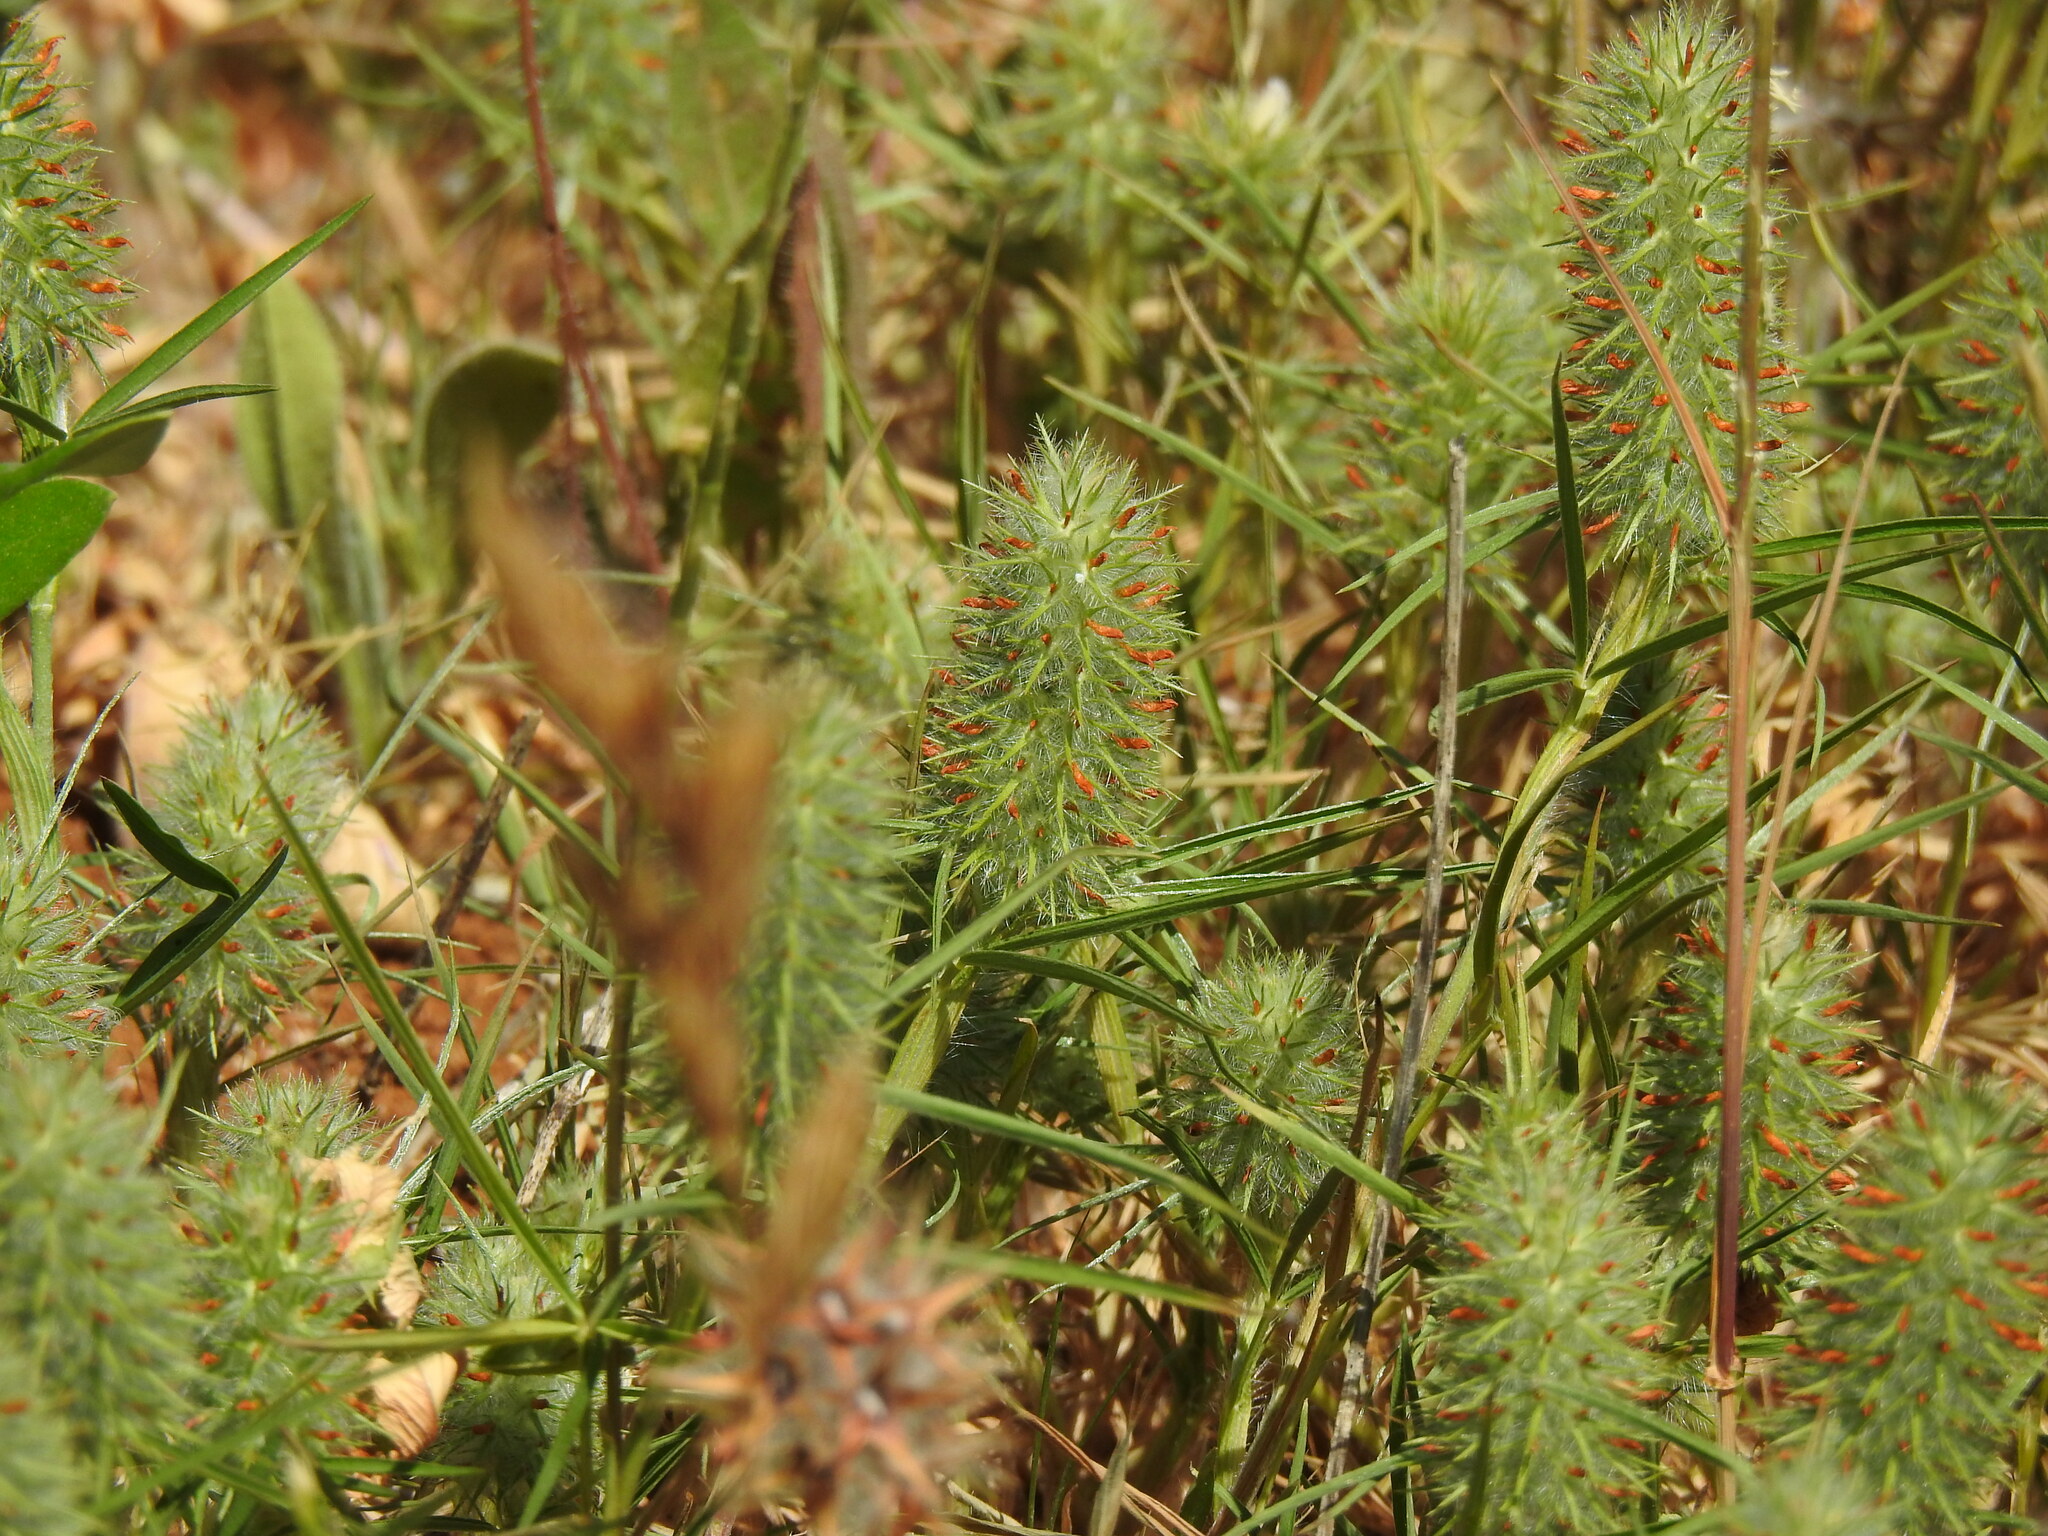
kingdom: Plantae
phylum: Tracheophyta
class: Magnoliopsida
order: Fabales
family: Fabaceae
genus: Trifolium
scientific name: Trifolium angustifolium
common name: Narrow clover
